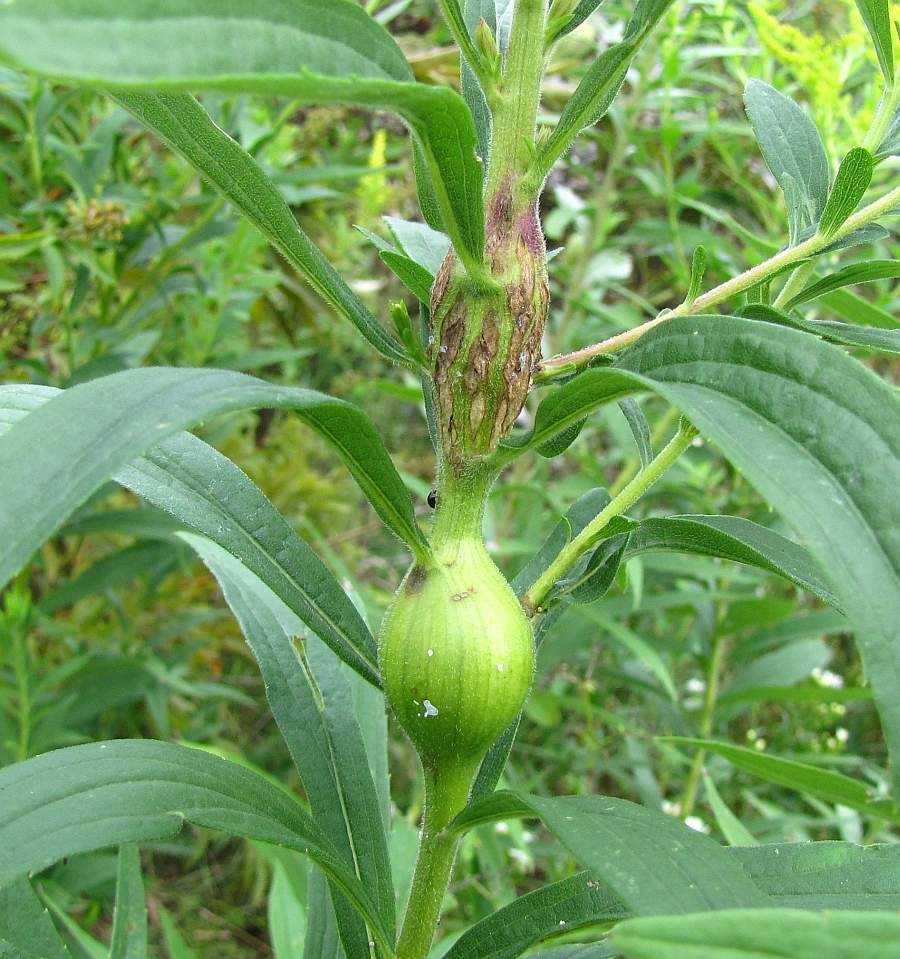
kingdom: Animalia
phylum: Arthropoda
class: Insecta
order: Diptera
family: Tephritidae
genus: Eurosta
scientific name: Eurosta solidaginis
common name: Goldenrod gall fly
